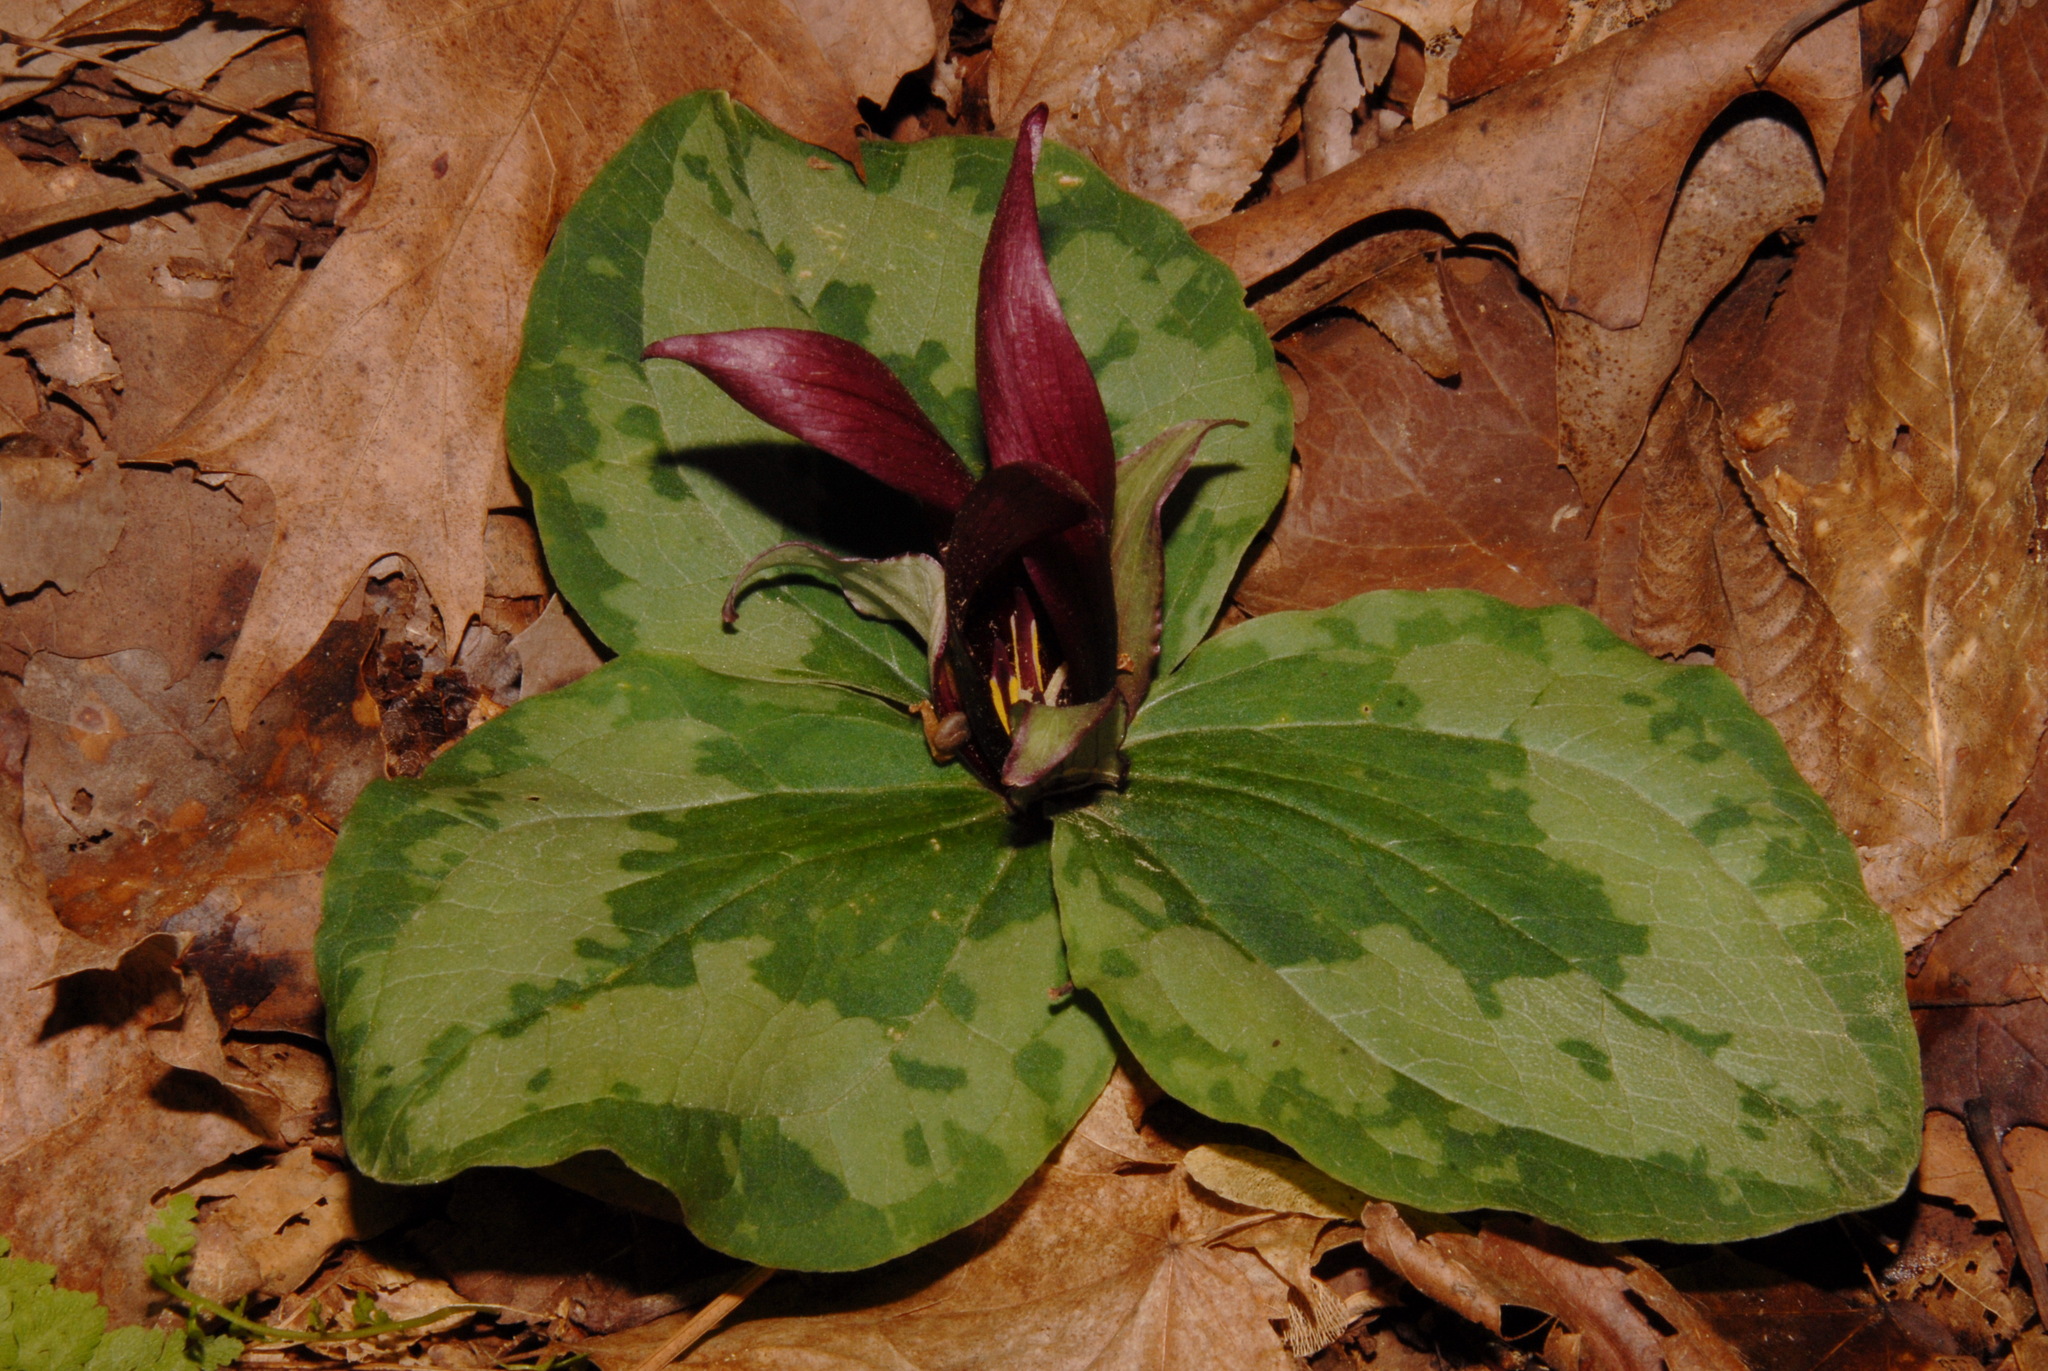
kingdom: Plantae
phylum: Tracheophyta
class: Liliopsida
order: Liliales
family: Melanthiaceae
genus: Trillium
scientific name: Trillium decumbens
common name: Decumbent trillium
